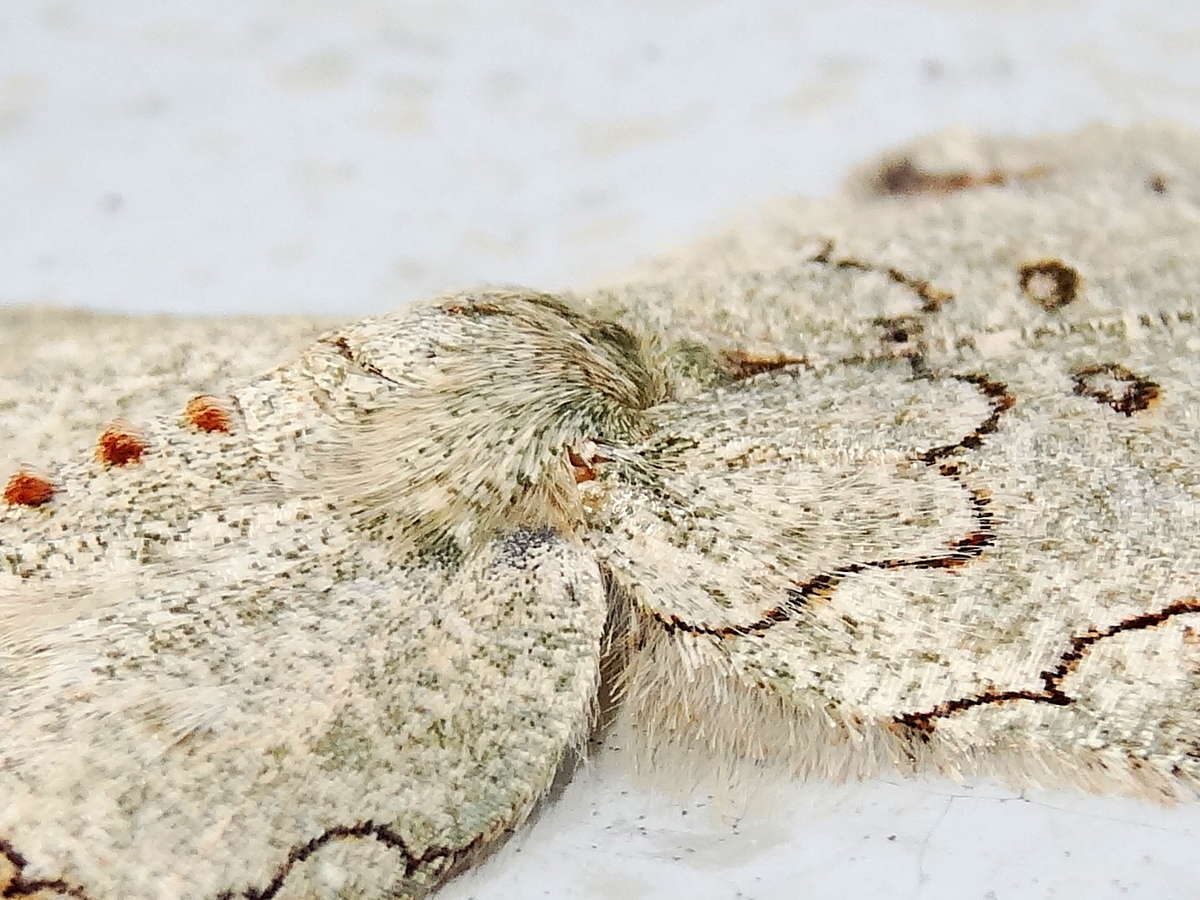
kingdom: Animalia
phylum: Arthropoda
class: Insecta
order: Lepidoptera
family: Geometridae
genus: Pingasa
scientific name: Pingasa cinerea
